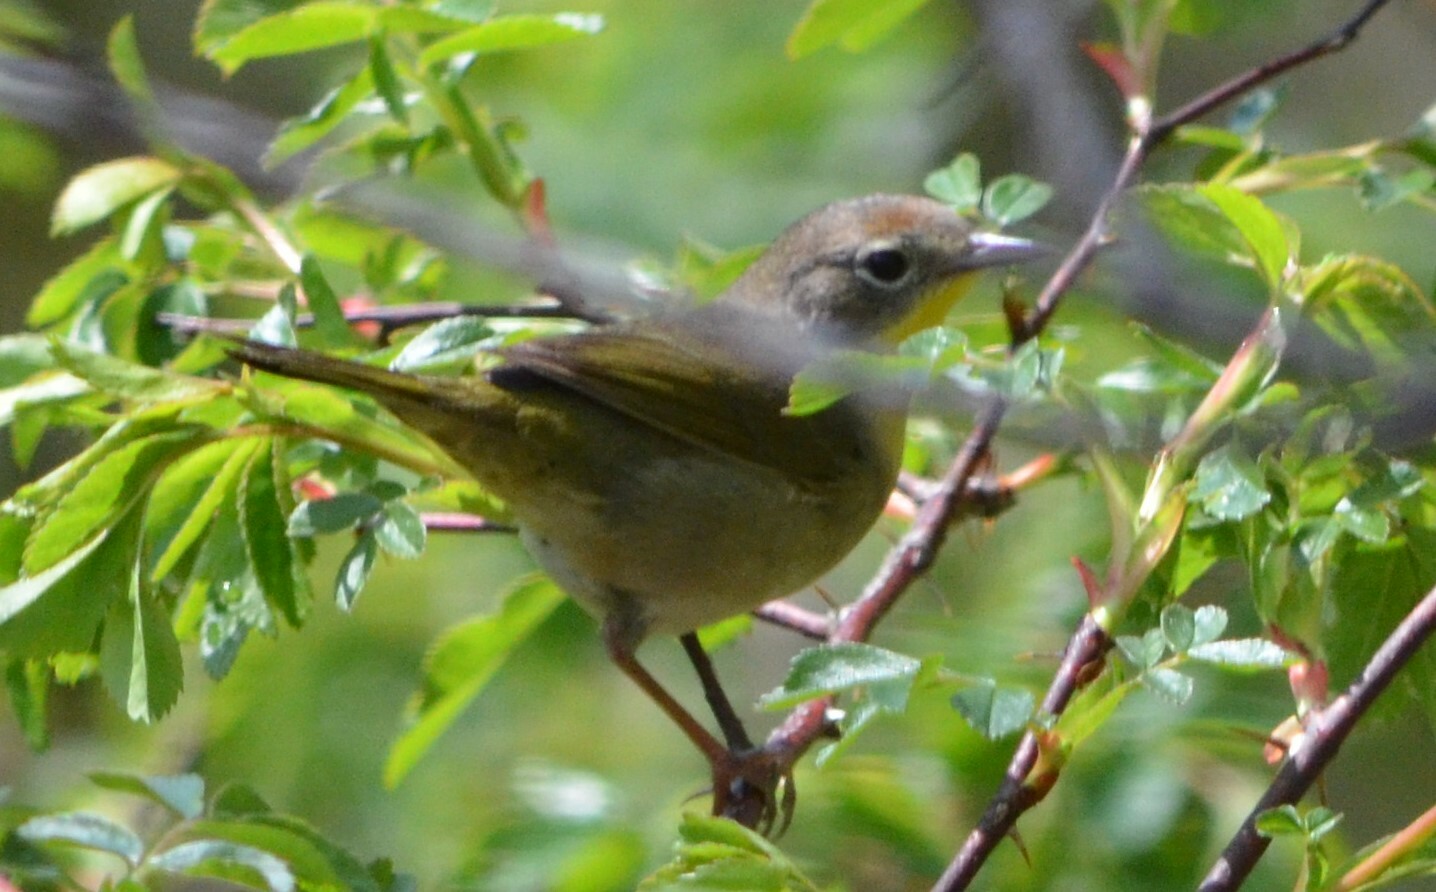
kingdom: Animalia
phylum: Chordata
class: Aves
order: Passeriformes
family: Parulidae
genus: Geothlypis
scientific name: Geothlypis trichas
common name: Common yellowthroat
